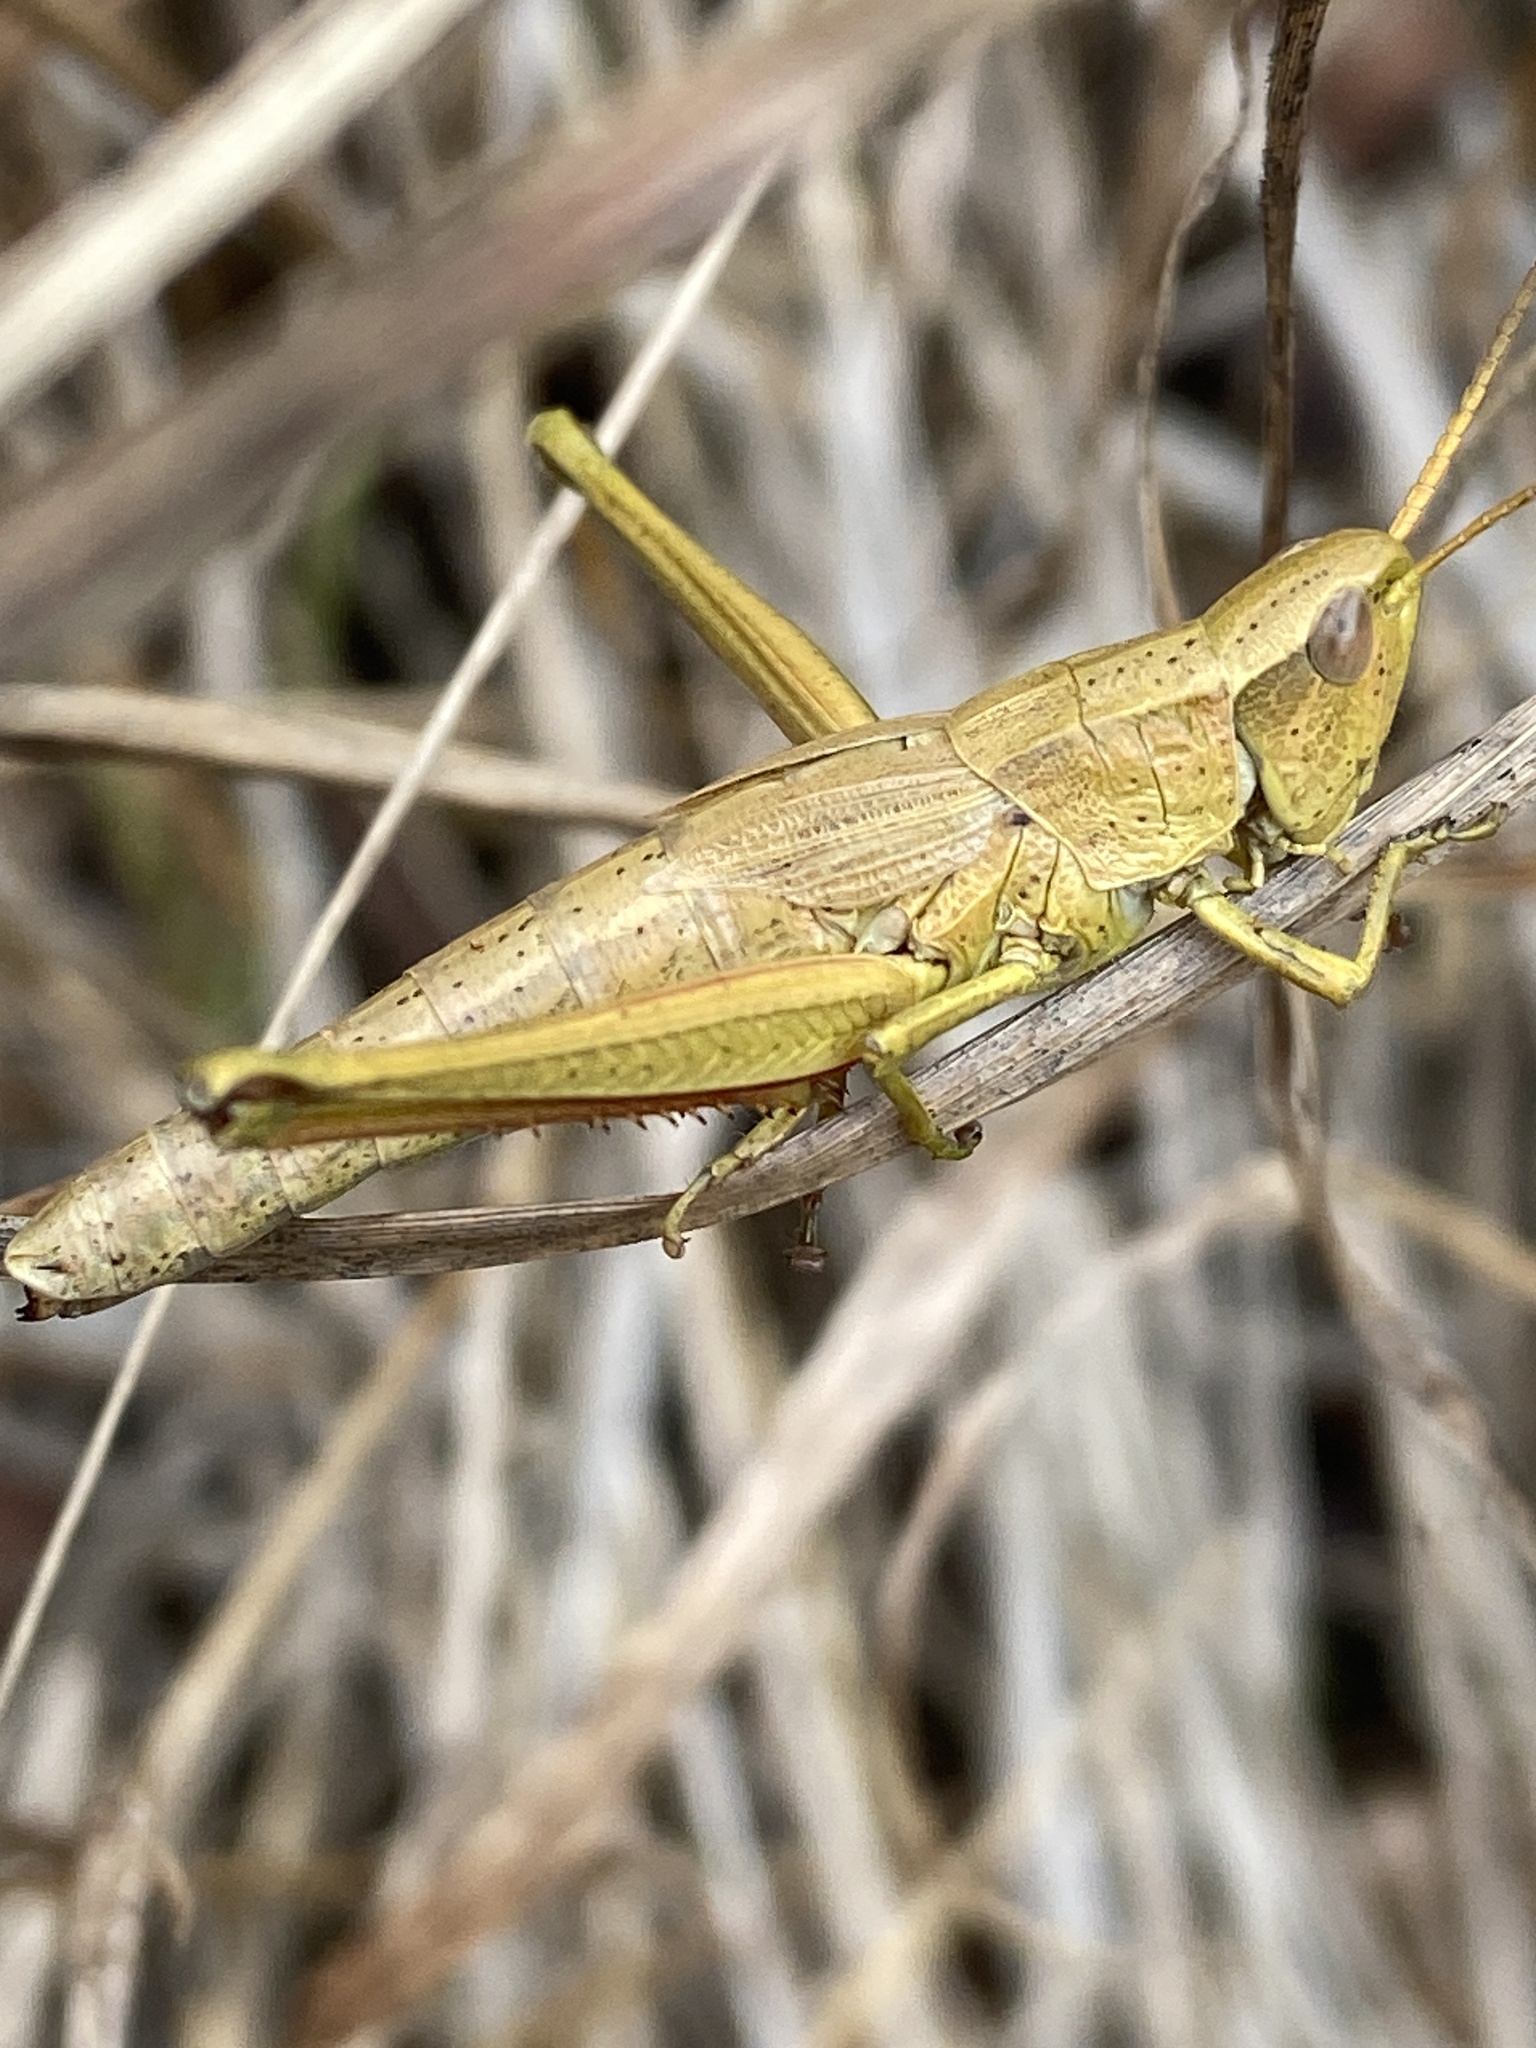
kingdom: Animalia
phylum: Arthropoda
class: Insecta
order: Orthoptera
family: Acrididae
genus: Chrysochraon
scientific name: Chrysochraon dispar
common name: Large gold grasshopper
